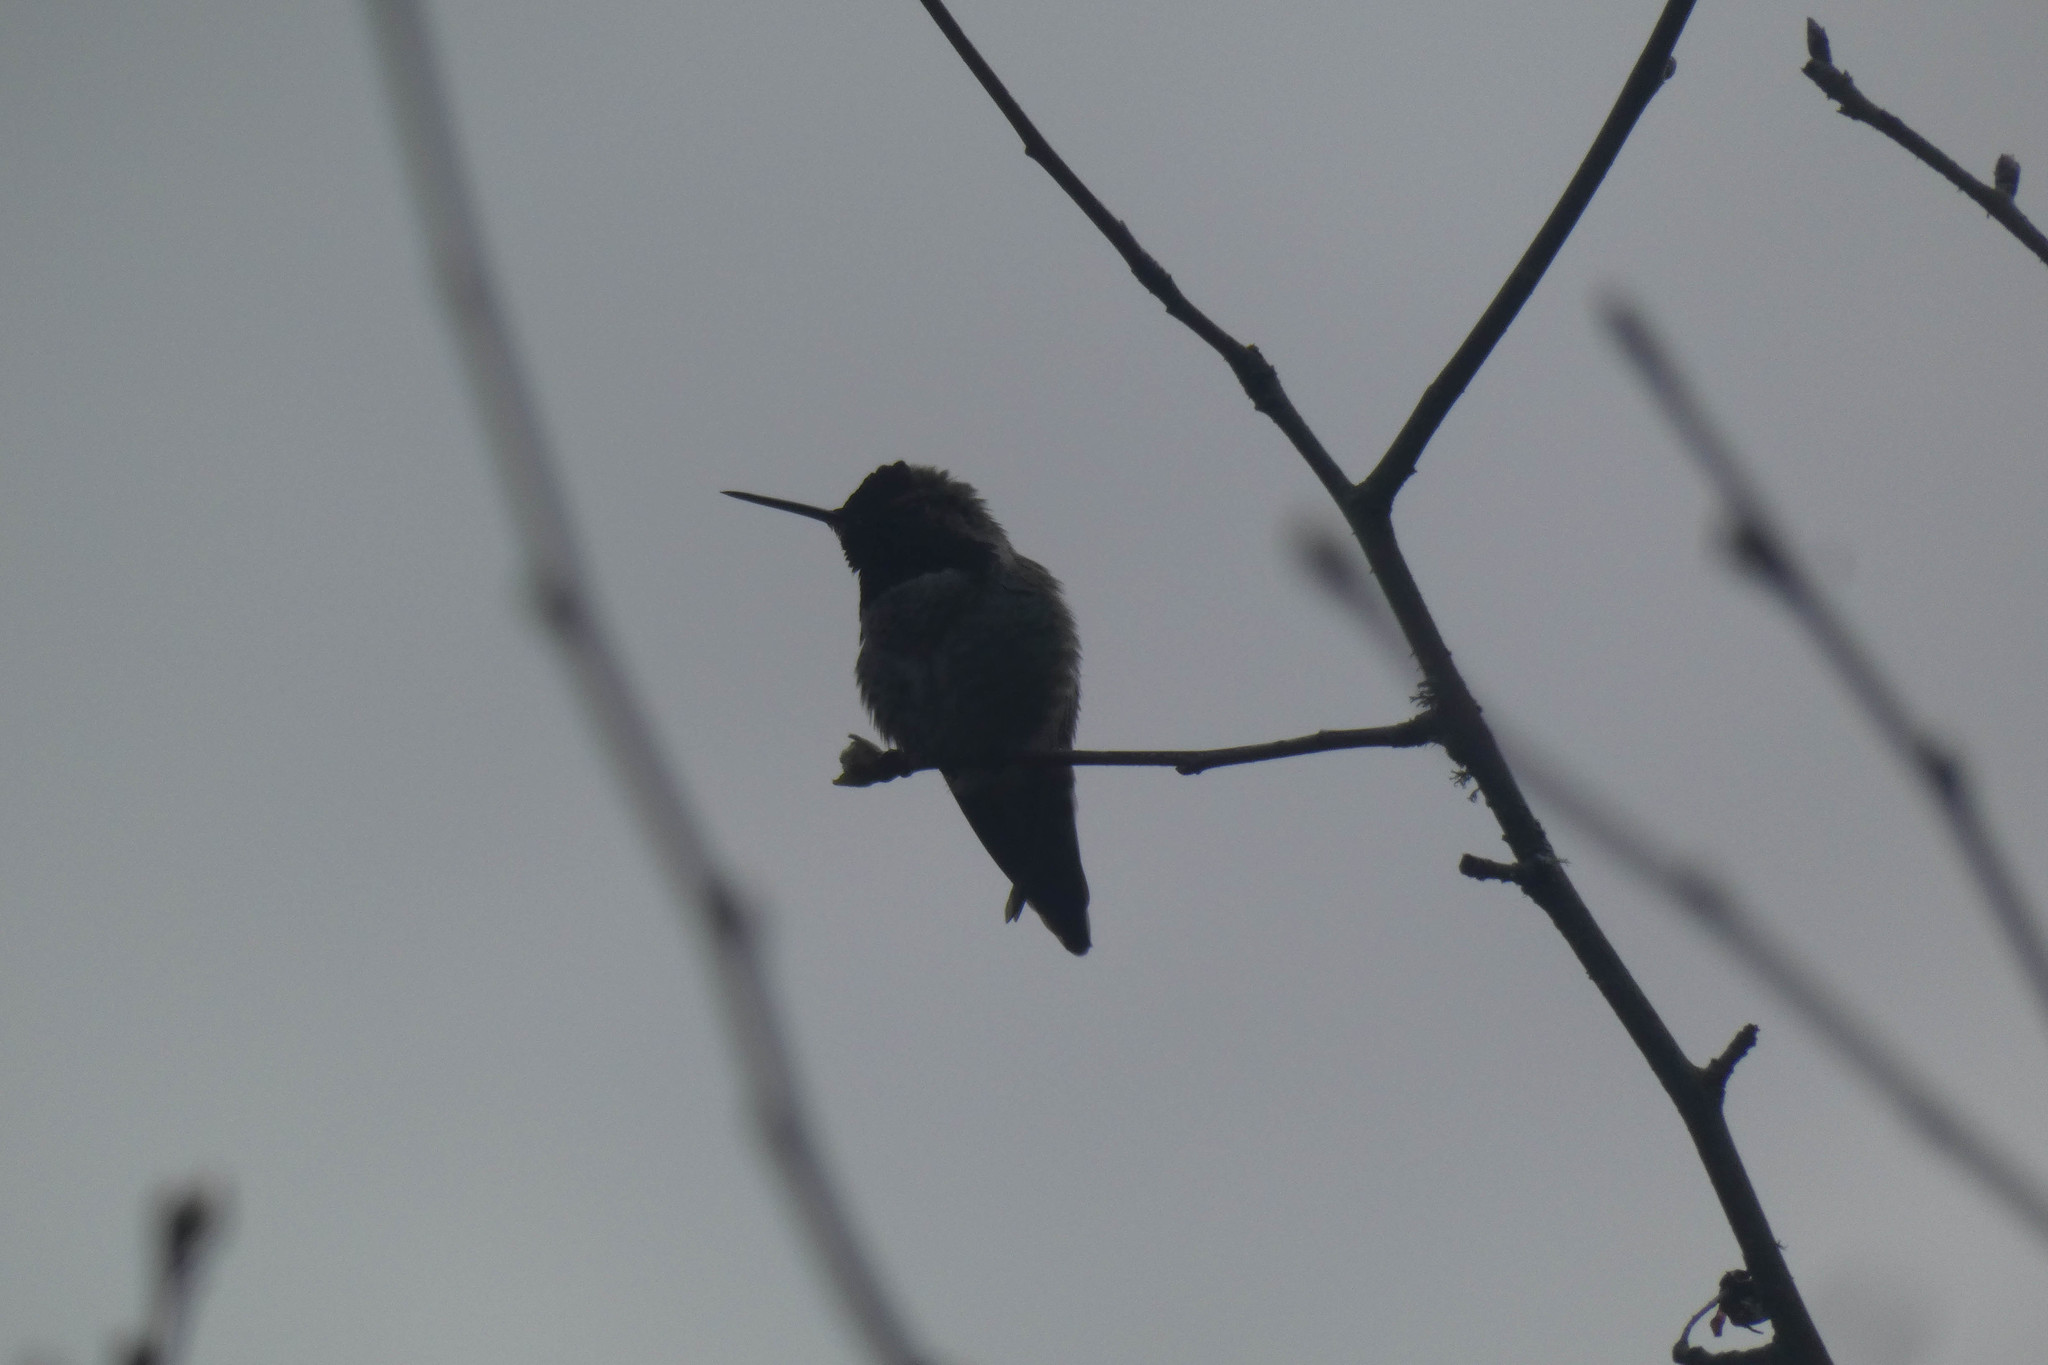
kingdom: Animalia
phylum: Chordata
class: Aves
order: Apodiformes
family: Trochilidae
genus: Calypte
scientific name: Calypte anna
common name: Anna's hummingbird
